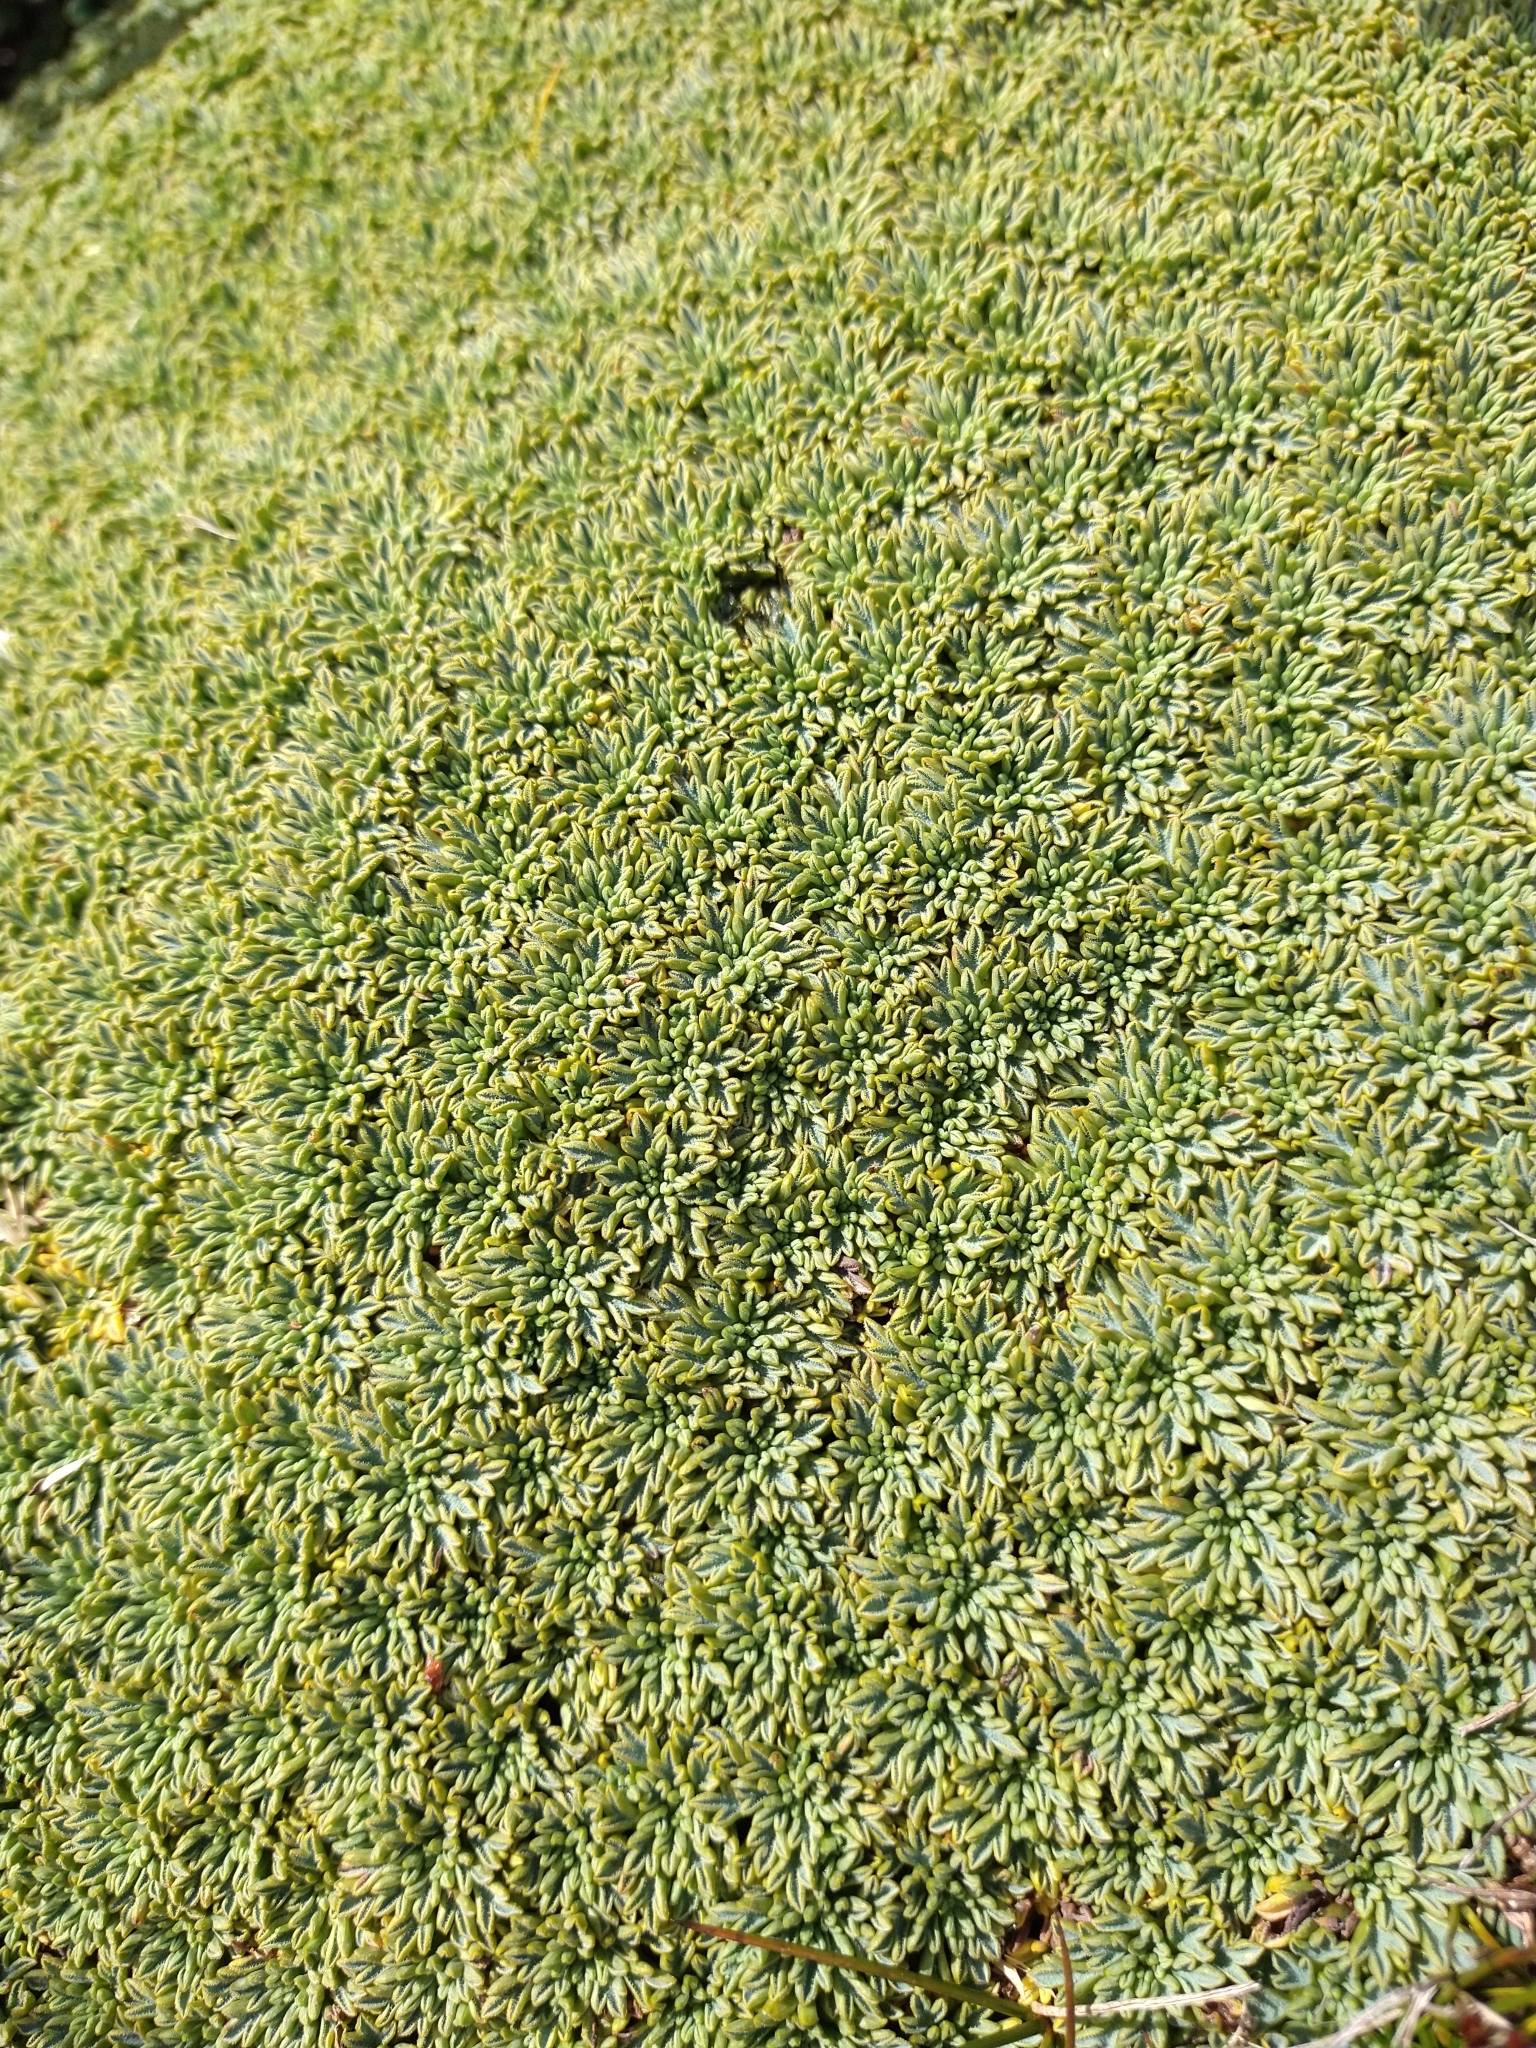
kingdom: Plantae
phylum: Tracheophyta
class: Magnoliopsida
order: Apiales
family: Apiaceae
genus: Bolax
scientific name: Bolax gummifera
